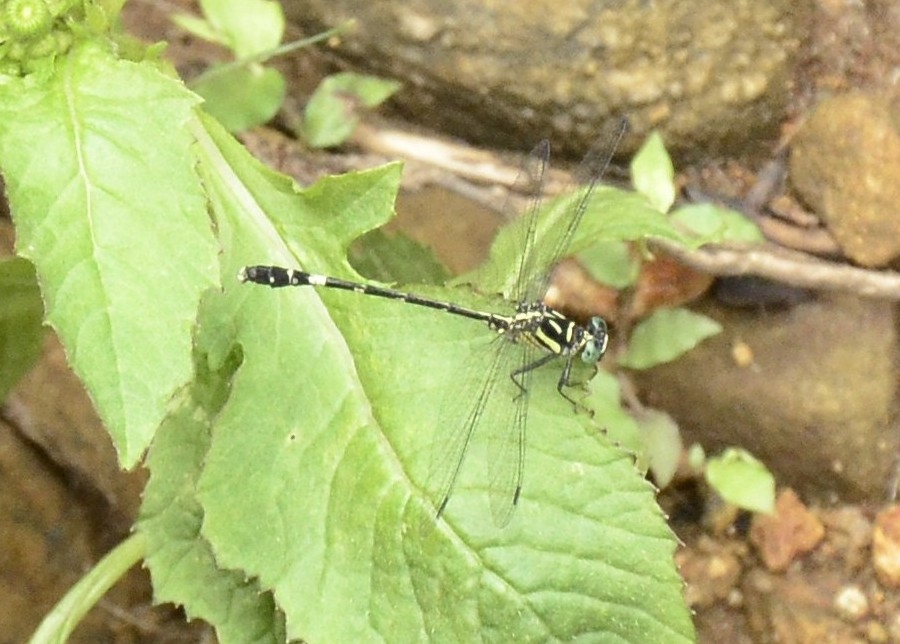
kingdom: Animalia
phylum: Arthropoda
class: Insecta
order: Odonata
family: Gomphidae
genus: Heliogomphus
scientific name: Heliogomphus promelas
